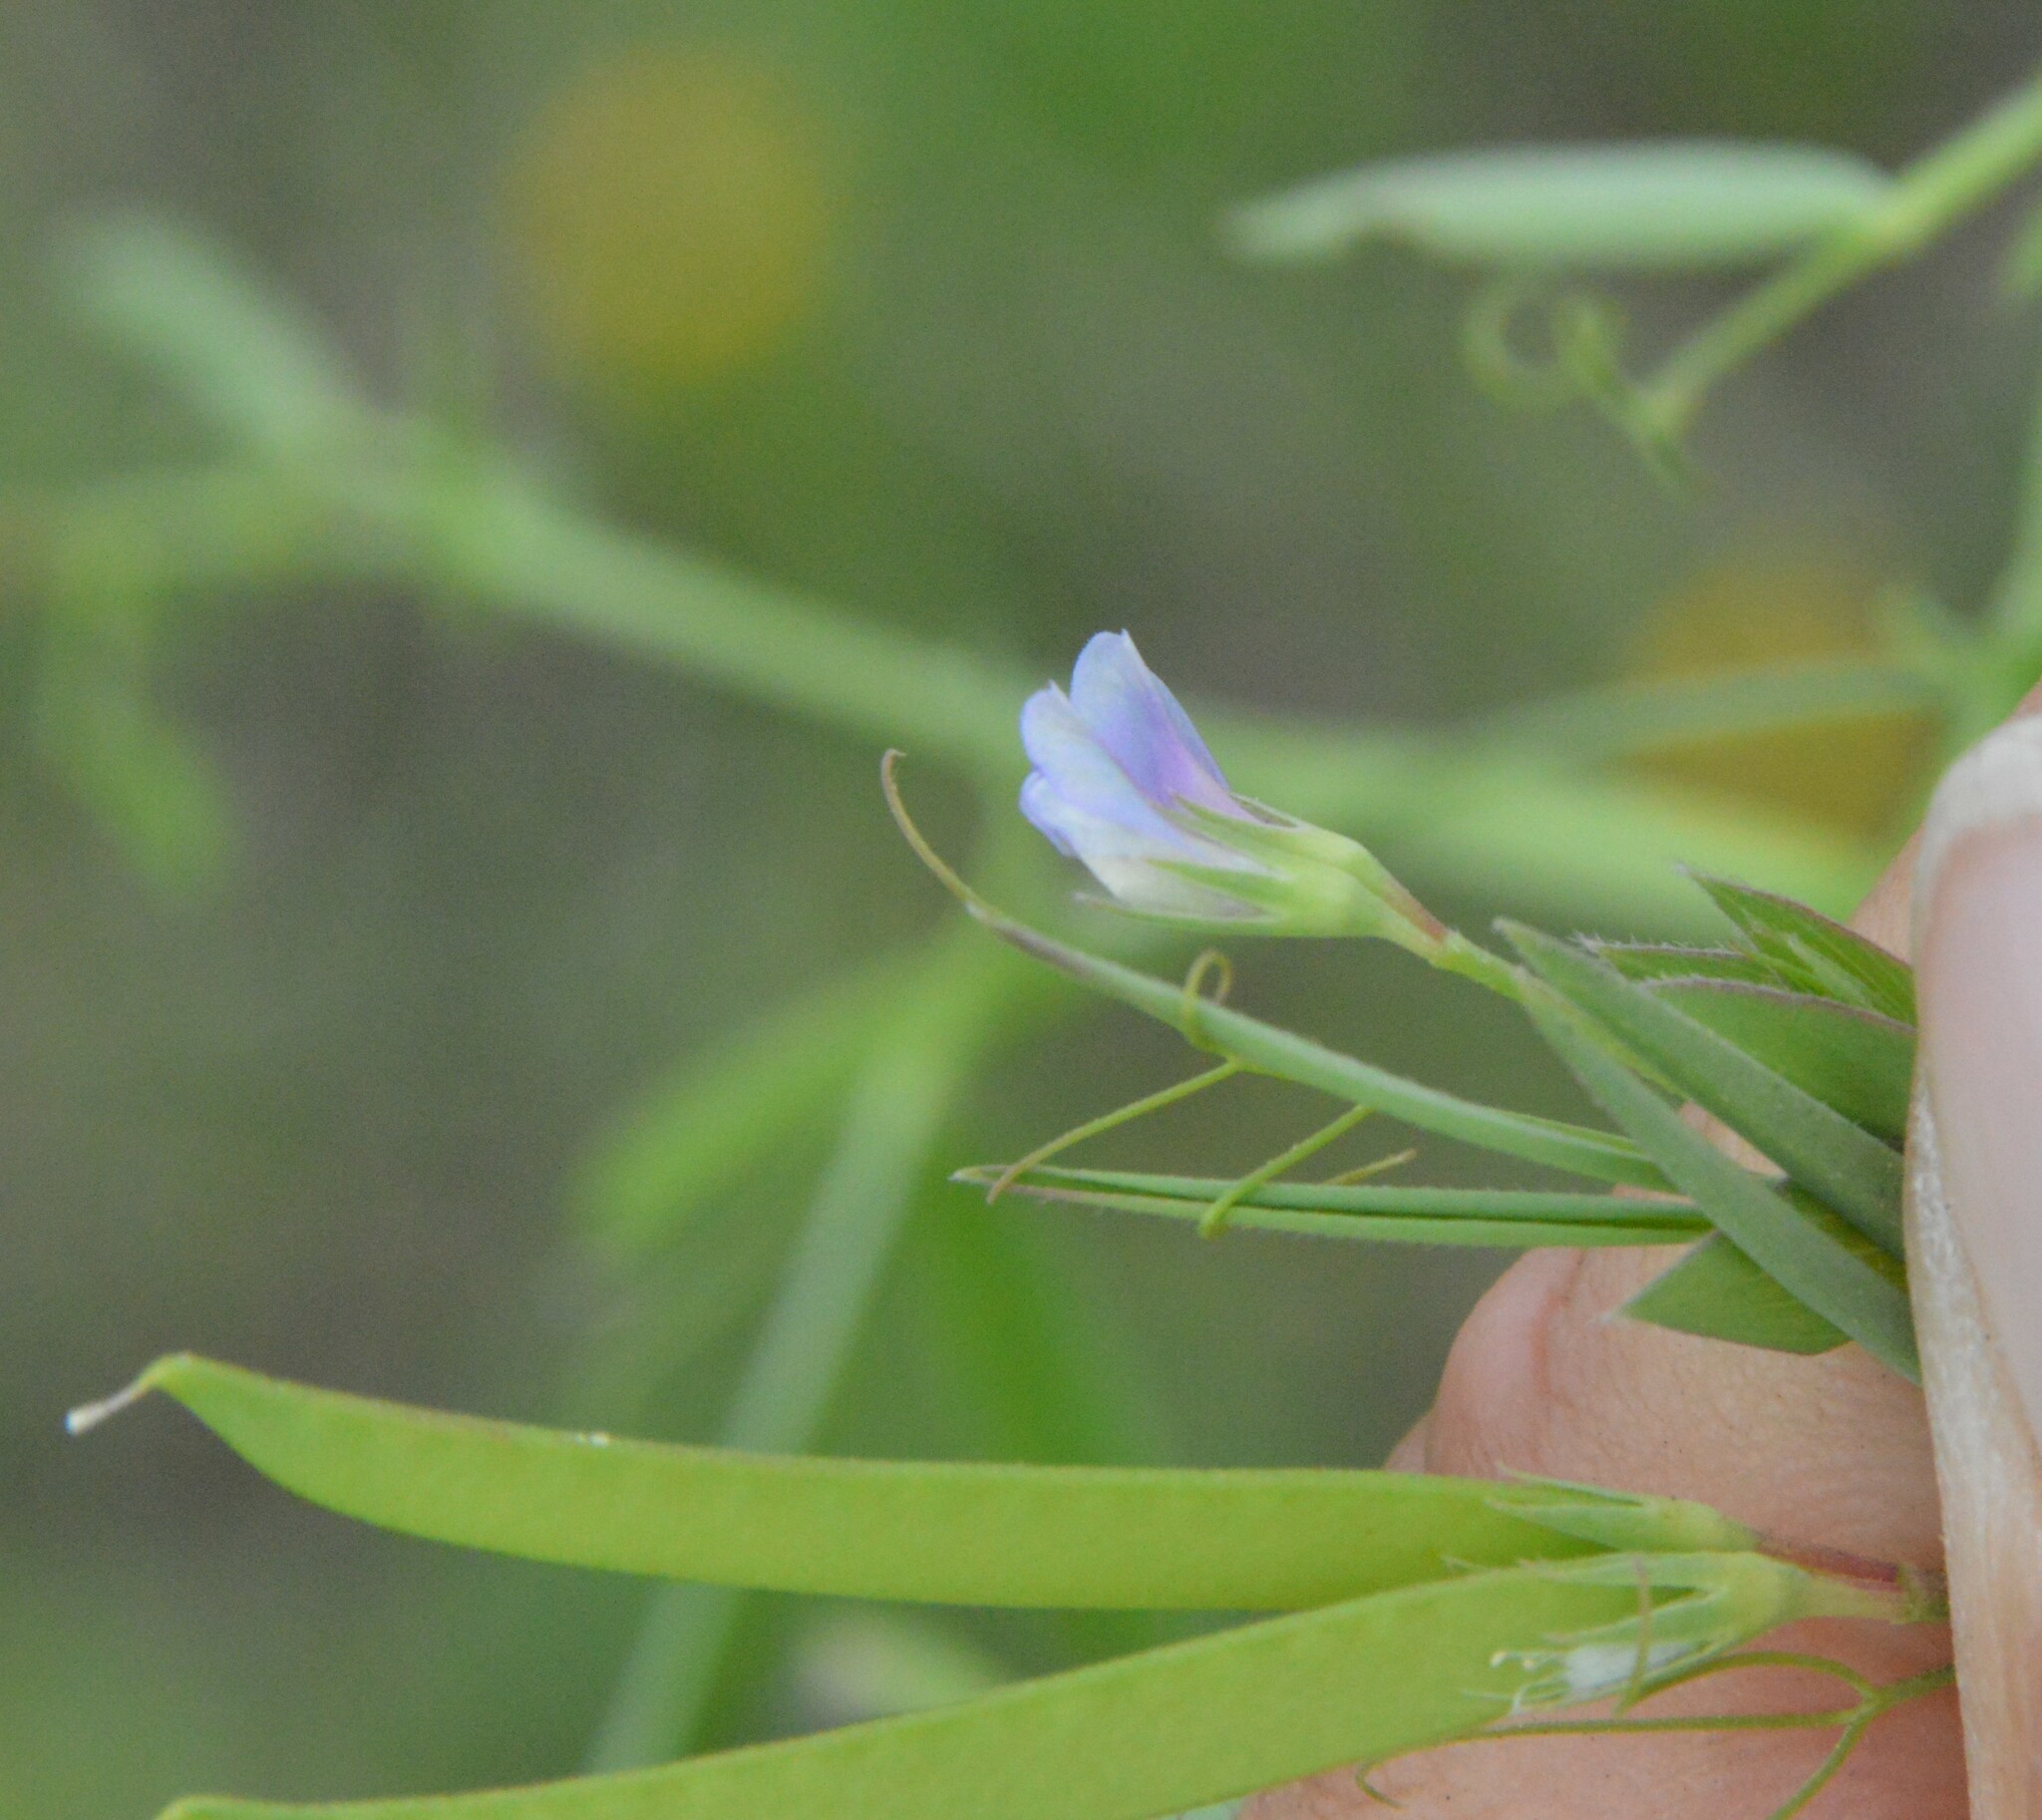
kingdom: Plantae
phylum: Tracheophyta
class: Magnoliopsida
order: Fabales
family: Fabaceae
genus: Vicia
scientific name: Vicia minutiflora
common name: Pygmy-flower vetch
